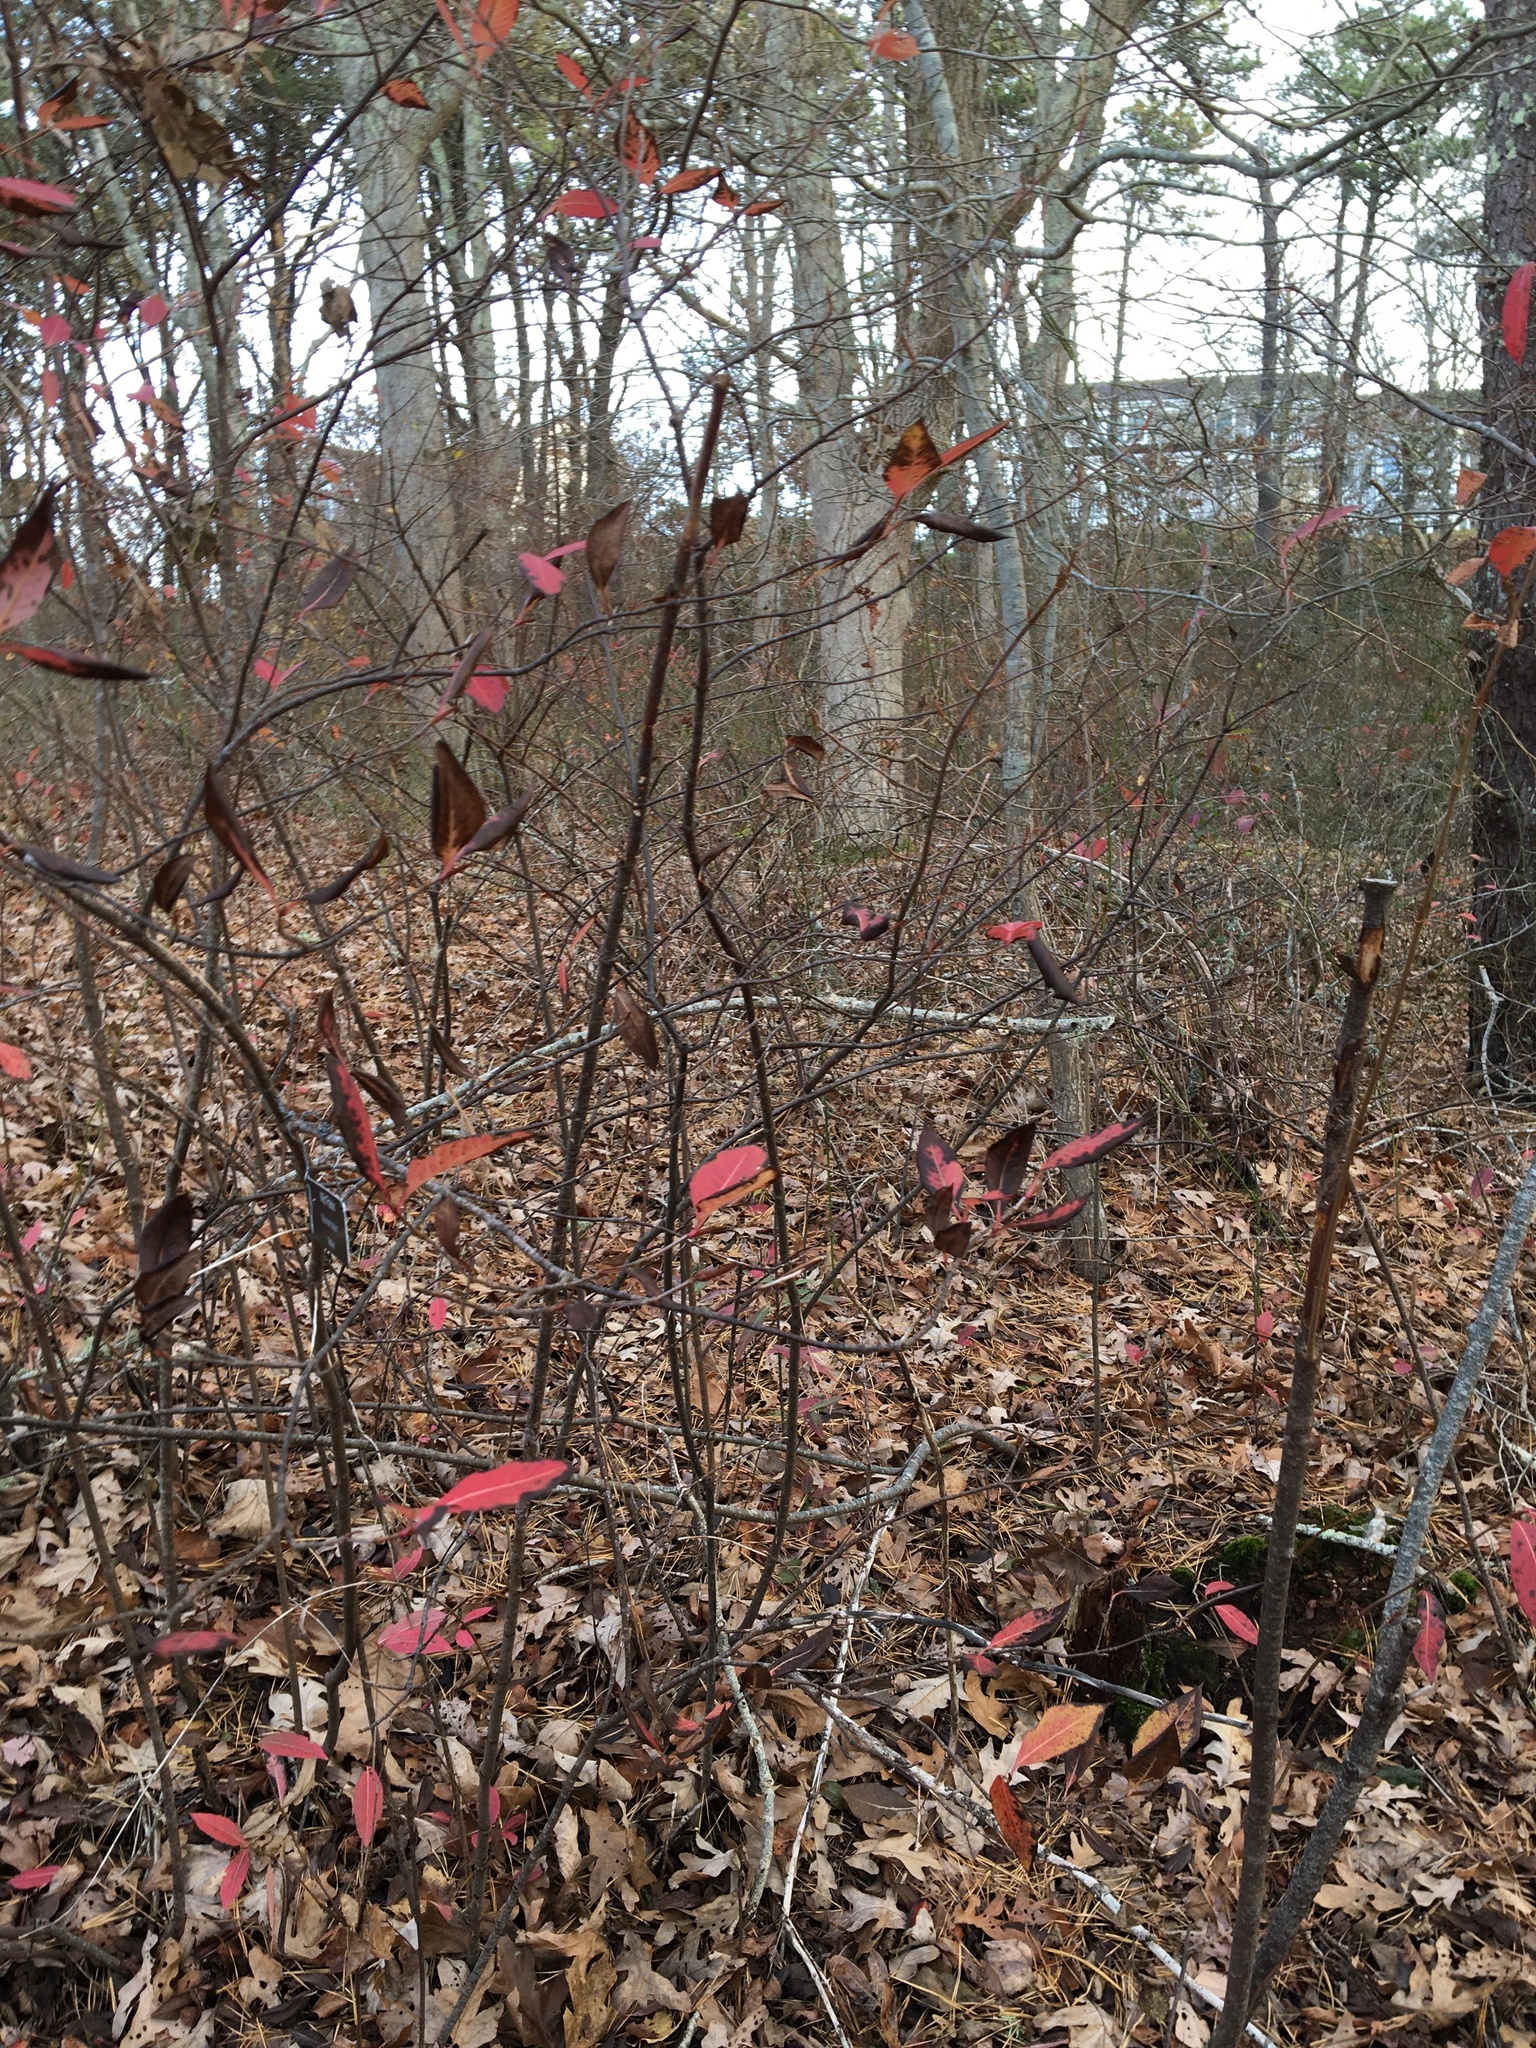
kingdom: Plantae
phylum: Tracheophyta
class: Magnoliopsida
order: Dipsacales
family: Viburnaceae
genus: Viburnum
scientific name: Viburnum cassinoides
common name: Swamp haw
